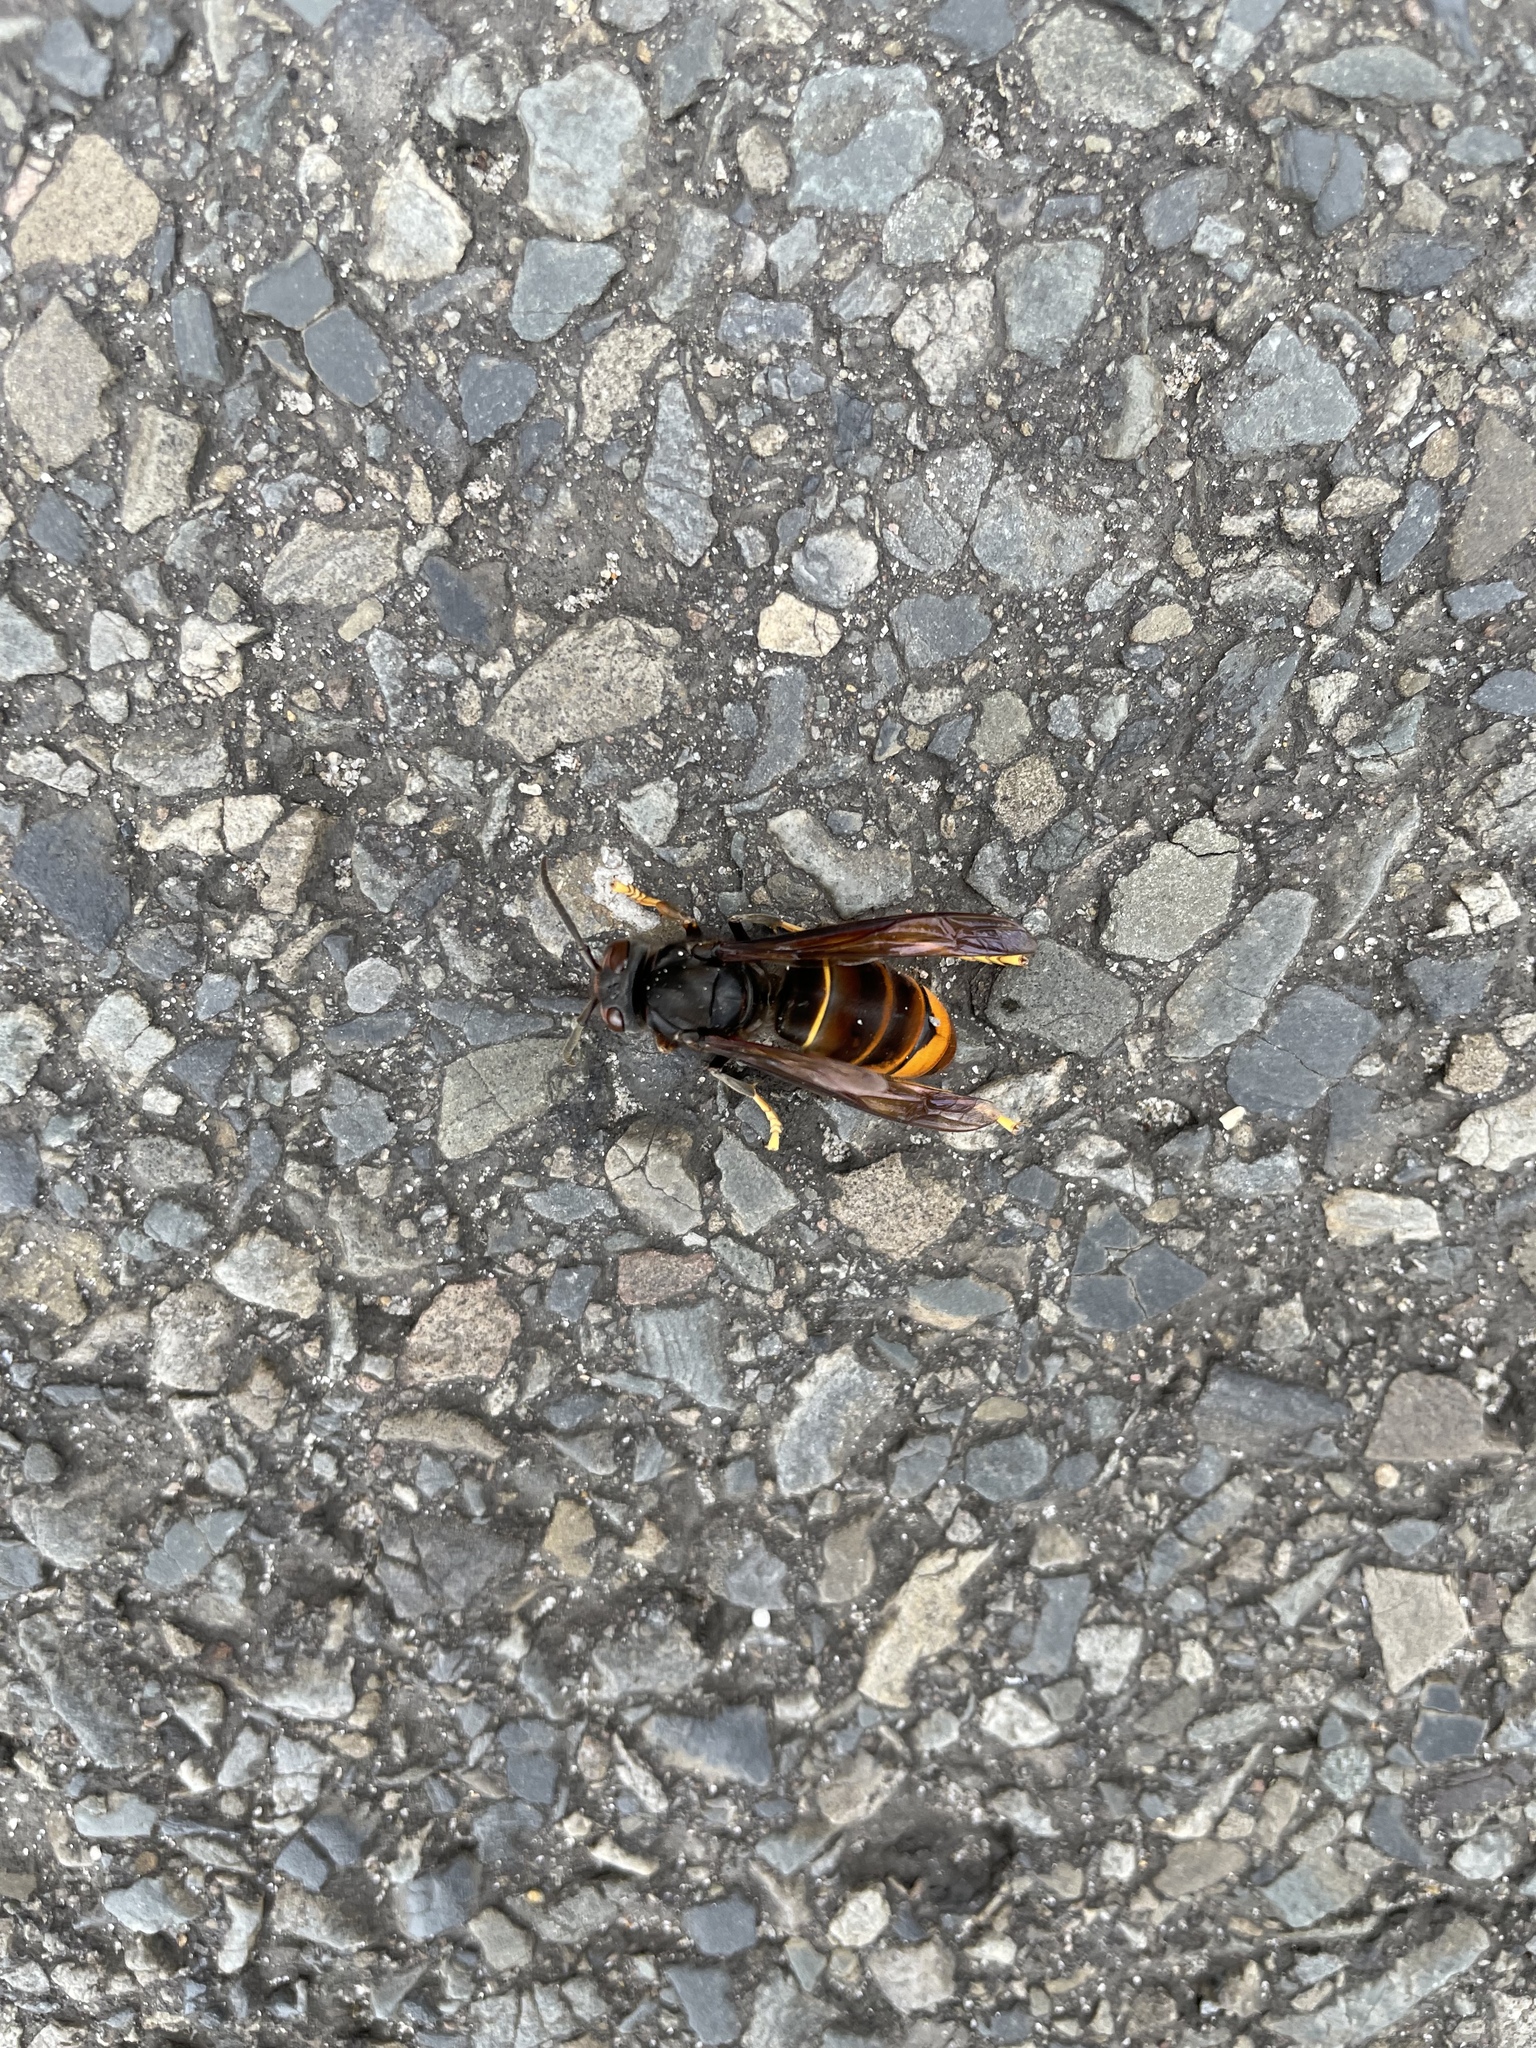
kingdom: Animalia
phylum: Arthropoda
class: Insecta
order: Hymenoptera
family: Vespidae
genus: Vespa
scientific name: Vespa velutina
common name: Asian hornet
